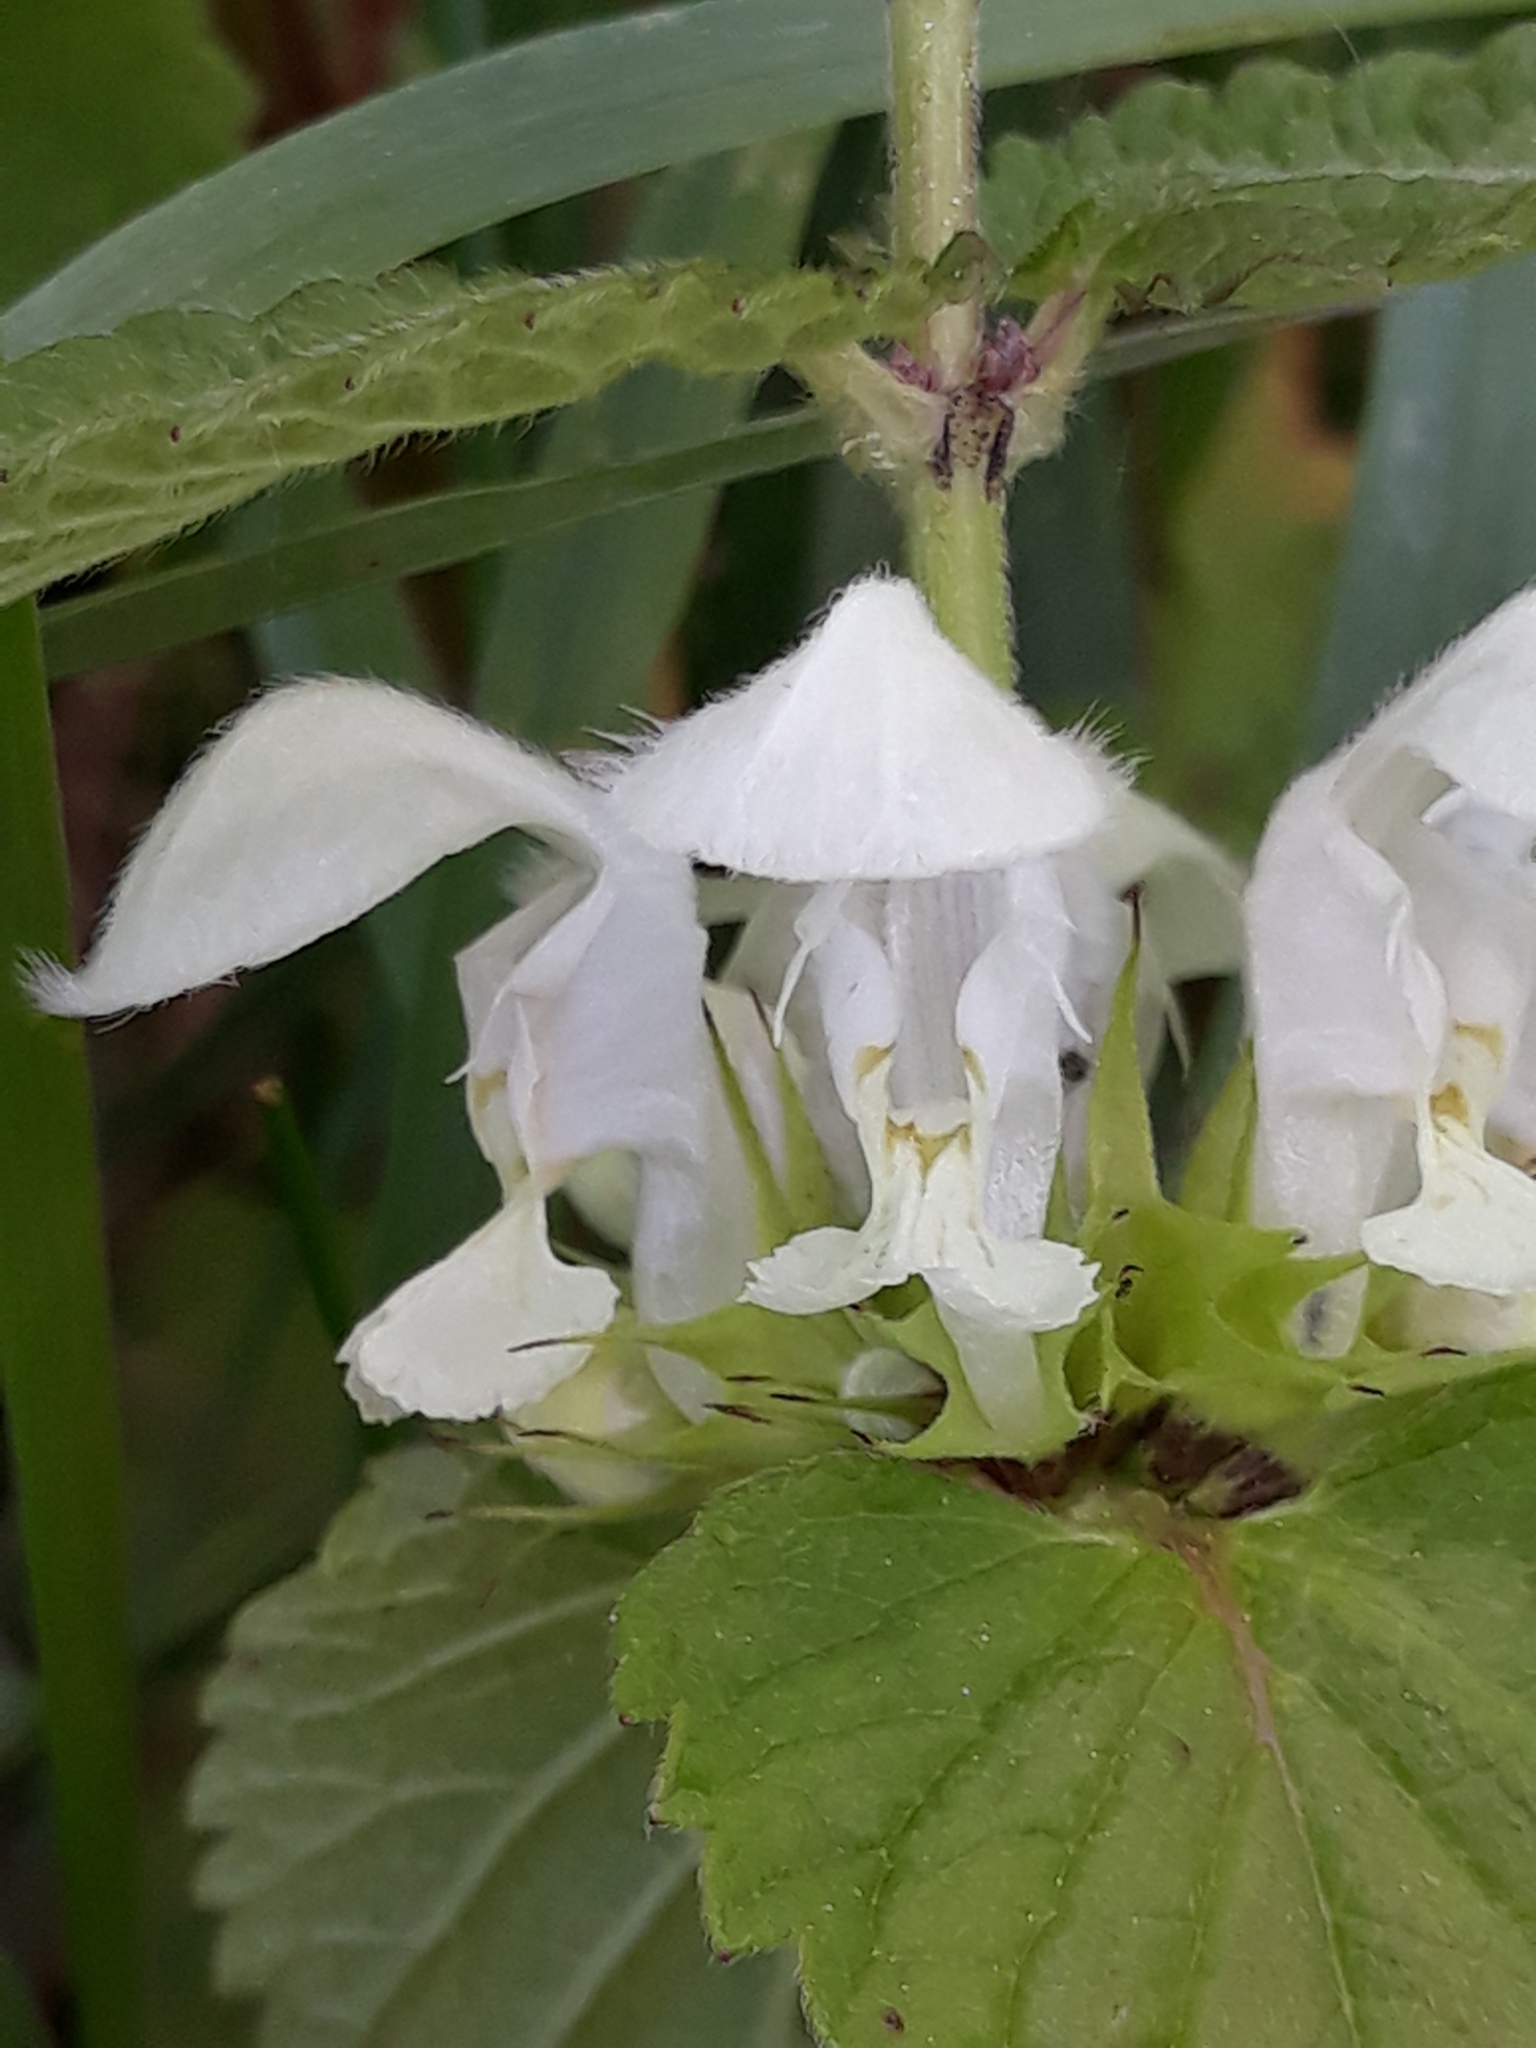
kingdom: Plantae
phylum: Tracheophyta
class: Magnoliopsida
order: Lamiales
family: Lamiaceae
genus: Lamium
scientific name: Lamium album
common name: White dead-nettle
